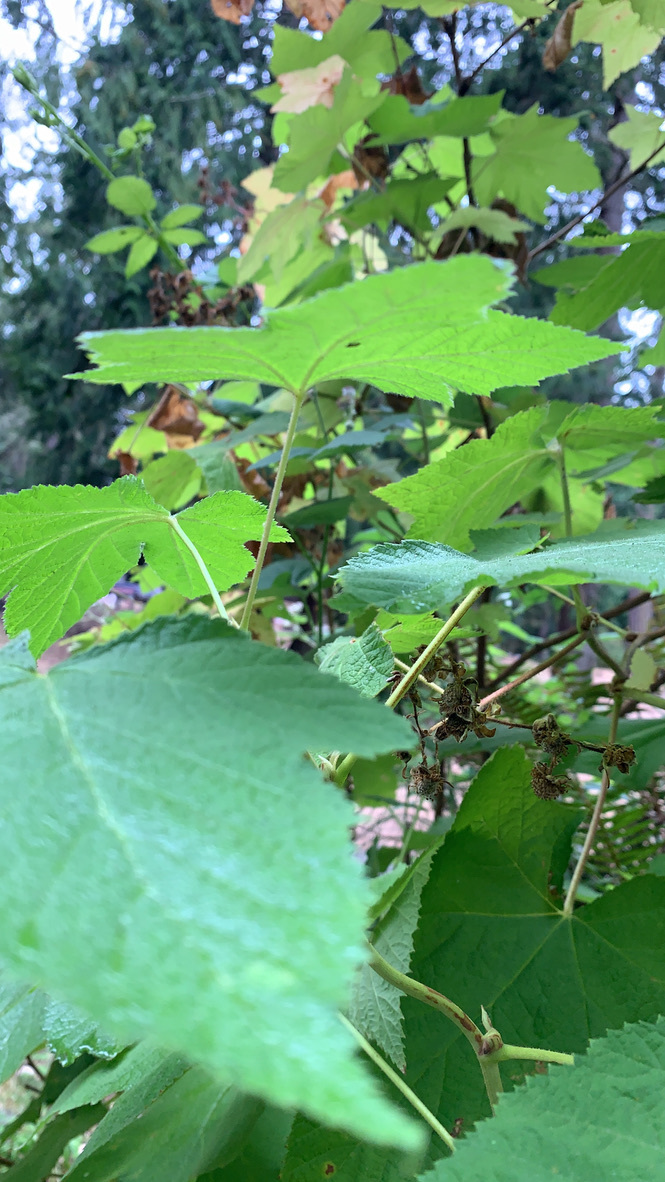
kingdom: Plantae
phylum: Tracheophyta
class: Magnoliopsida
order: Rosales
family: Rosaceae
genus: Rubus
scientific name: Rubus parviflorus
